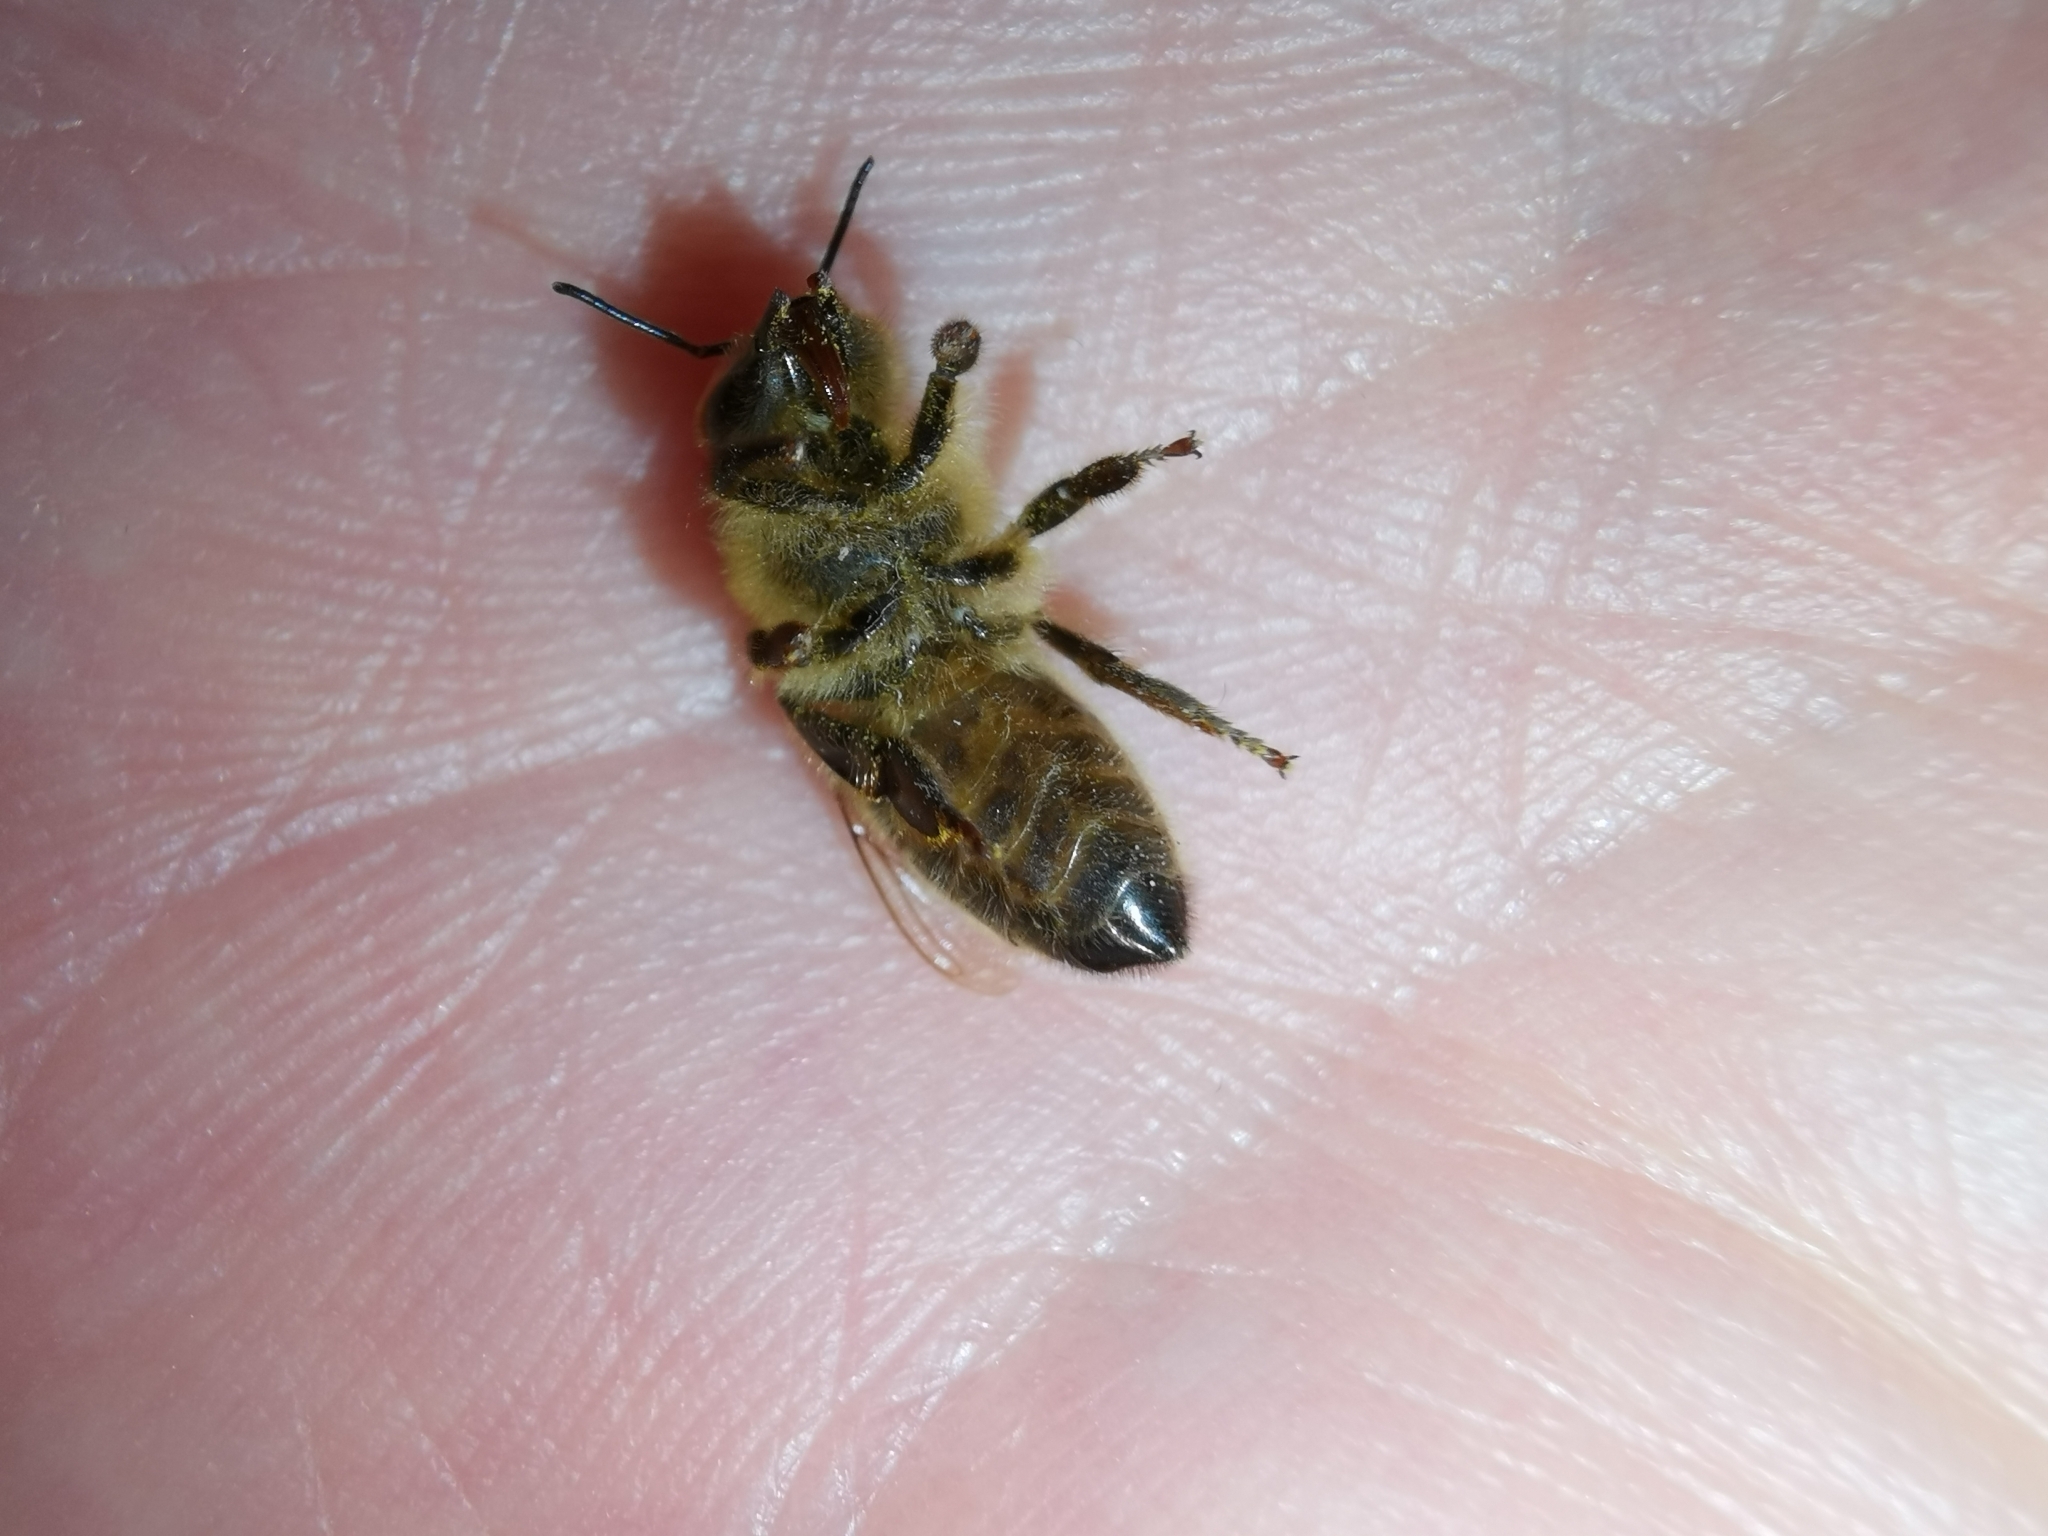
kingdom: Animalia
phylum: Arthropoda
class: Insecta
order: Hymenoptera
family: Apidae
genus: Apis
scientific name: Apis mellifera
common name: Honey bee
